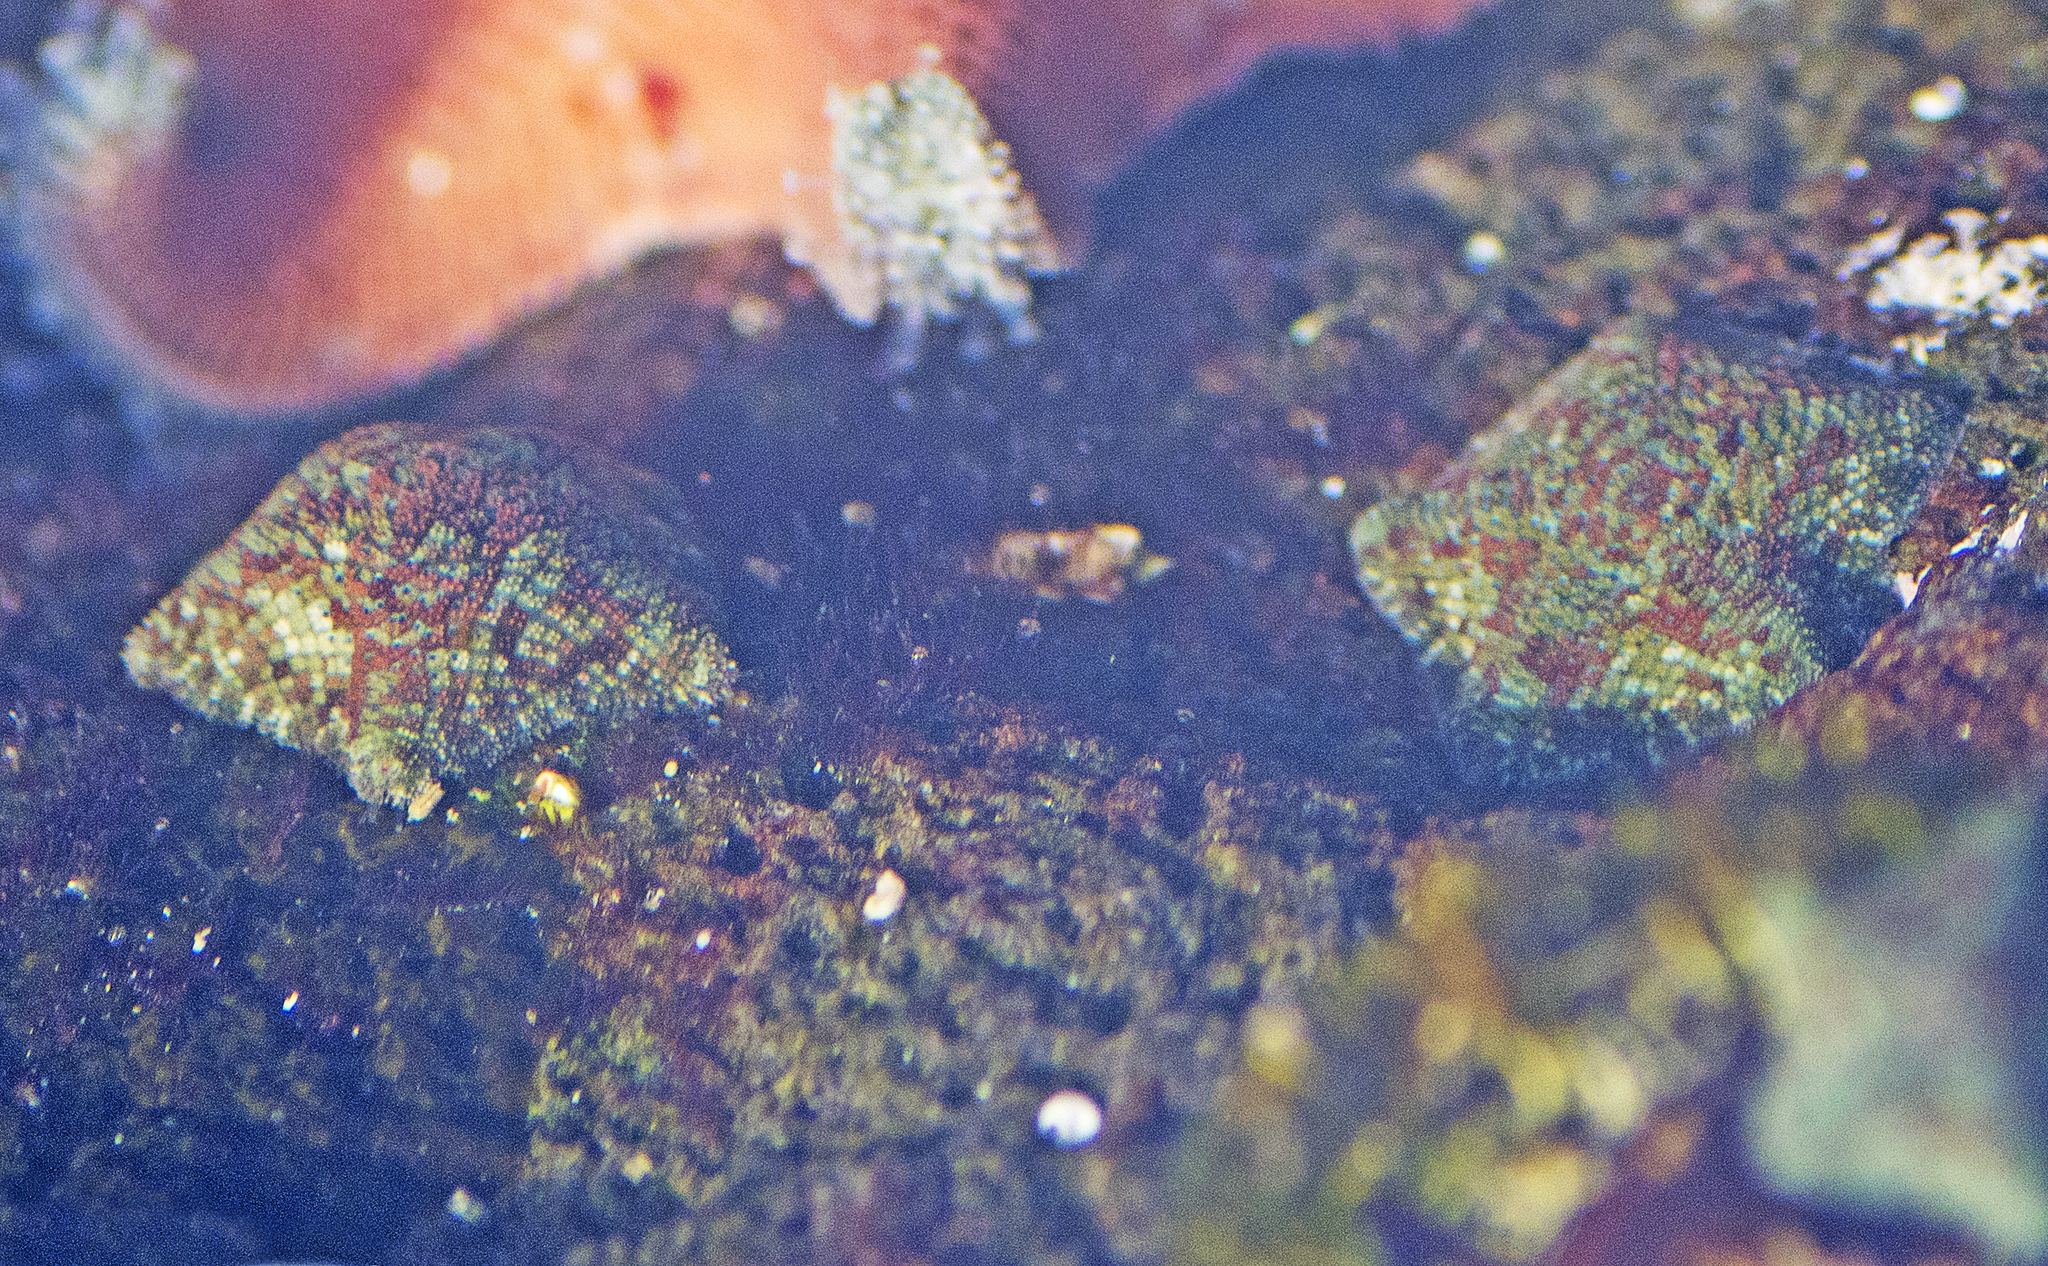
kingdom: Animalia
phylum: Echinodermata
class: Asteroidea
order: Valvatida
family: Asterinidae
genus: Parvulastra
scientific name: Parvulastra exigua
